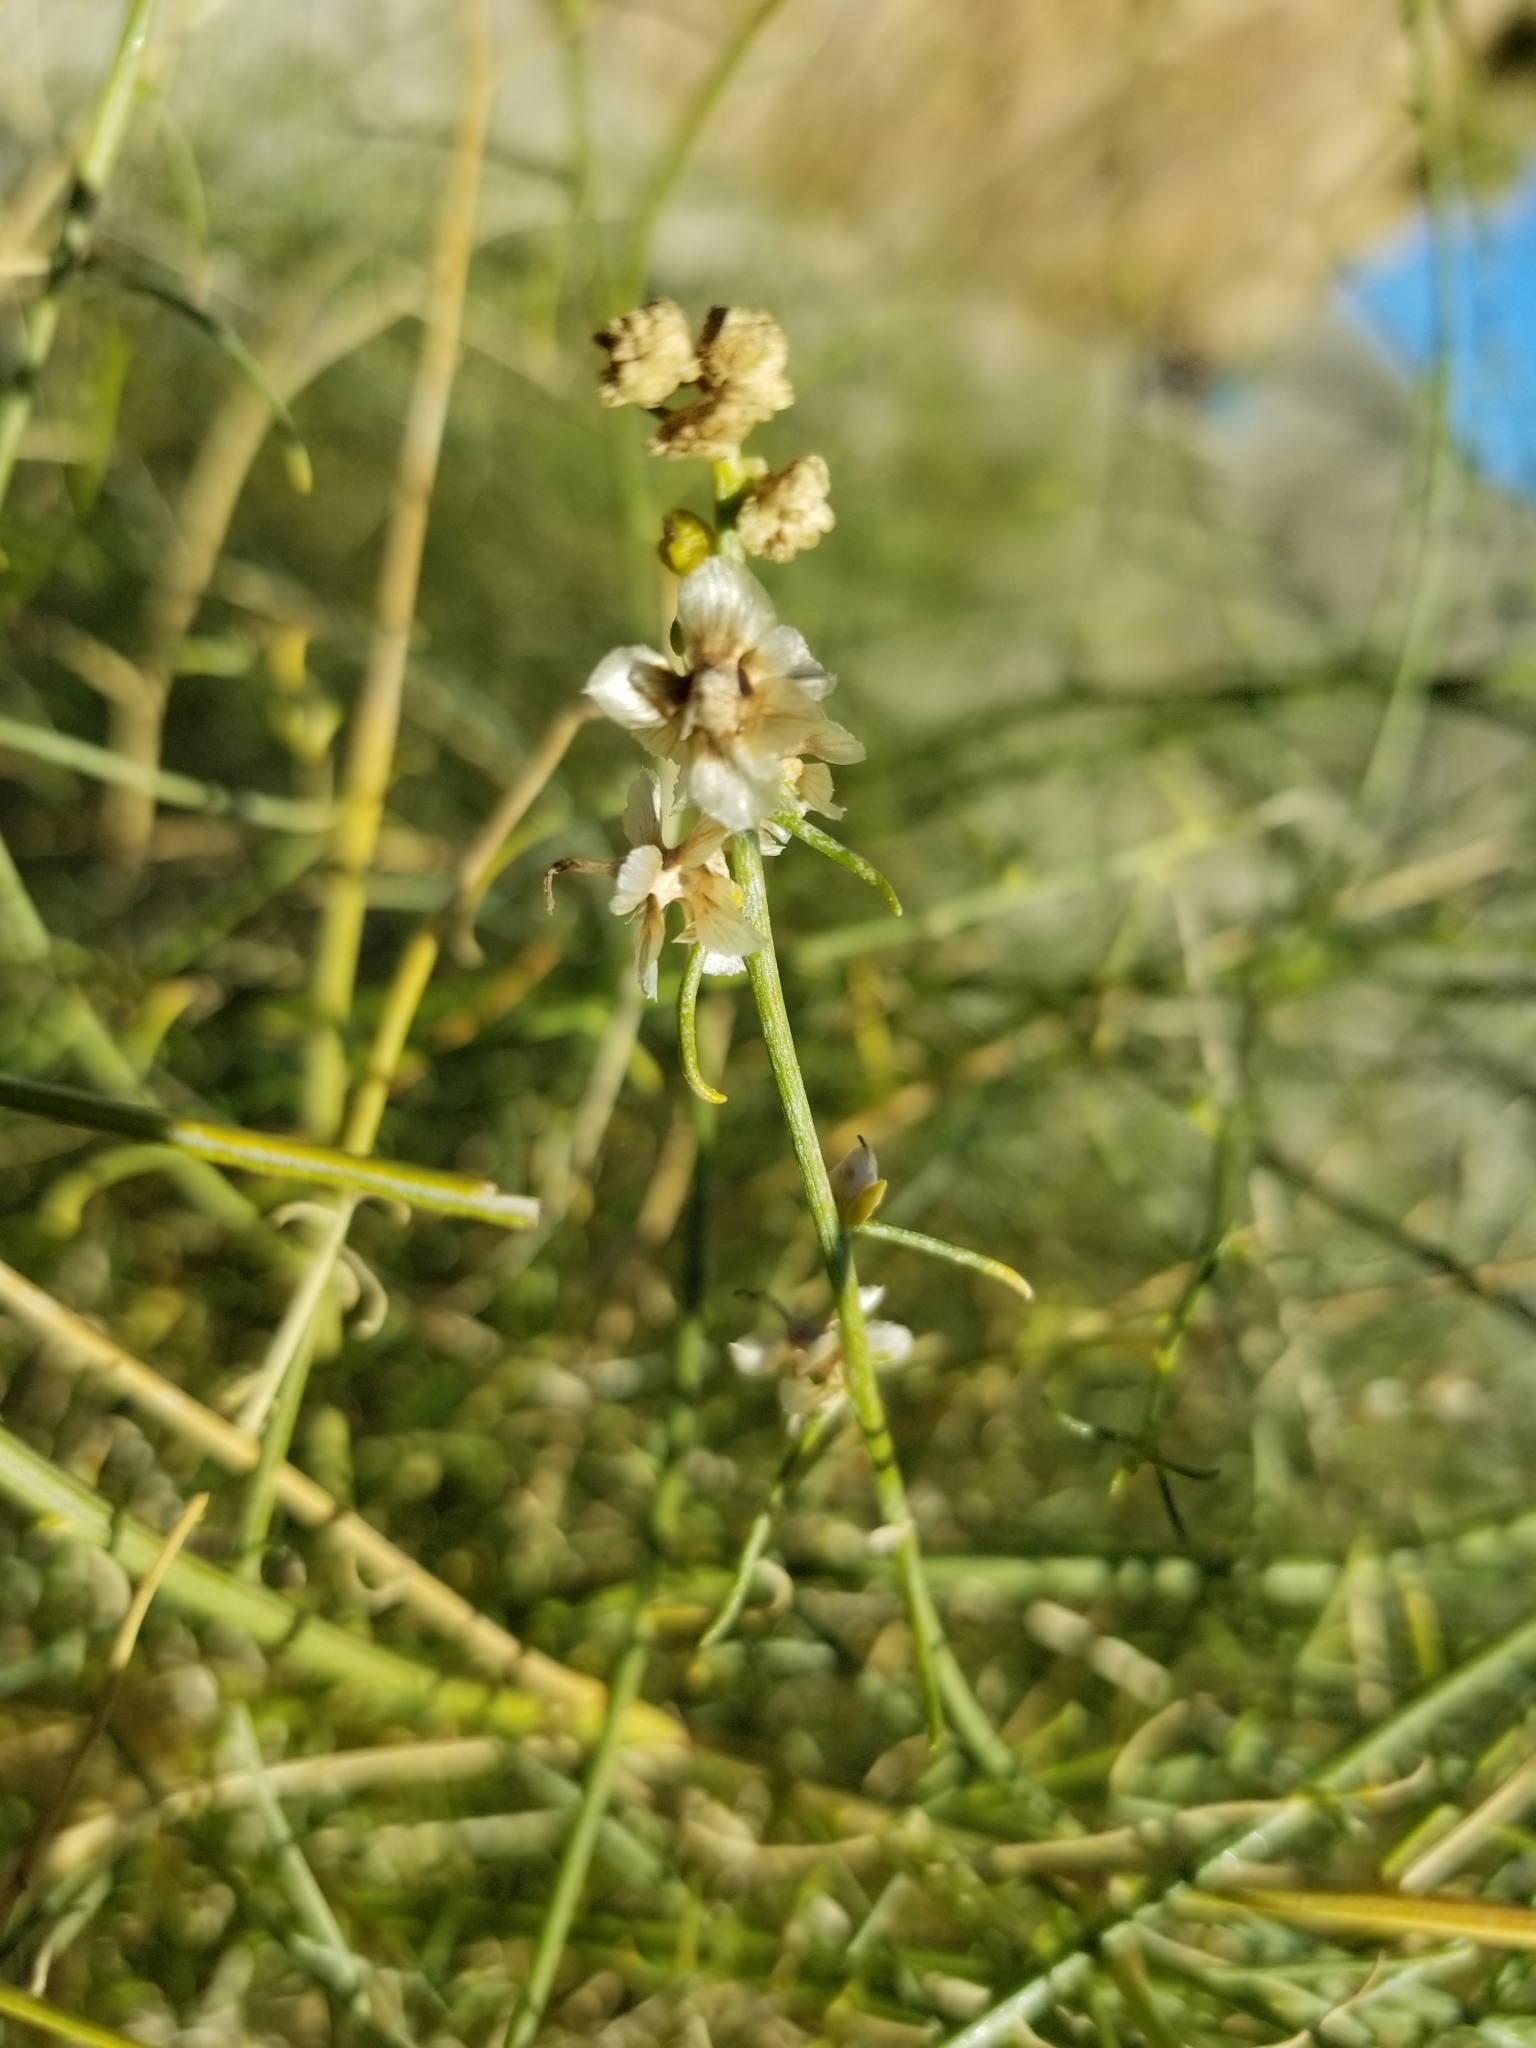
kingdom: Plantae
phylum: Tracheophyta
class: Magnoliopsida
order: Asterales
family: Asteraceae
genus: Ambrosia
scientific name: Ambrosia salsola
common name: Burrobrush
